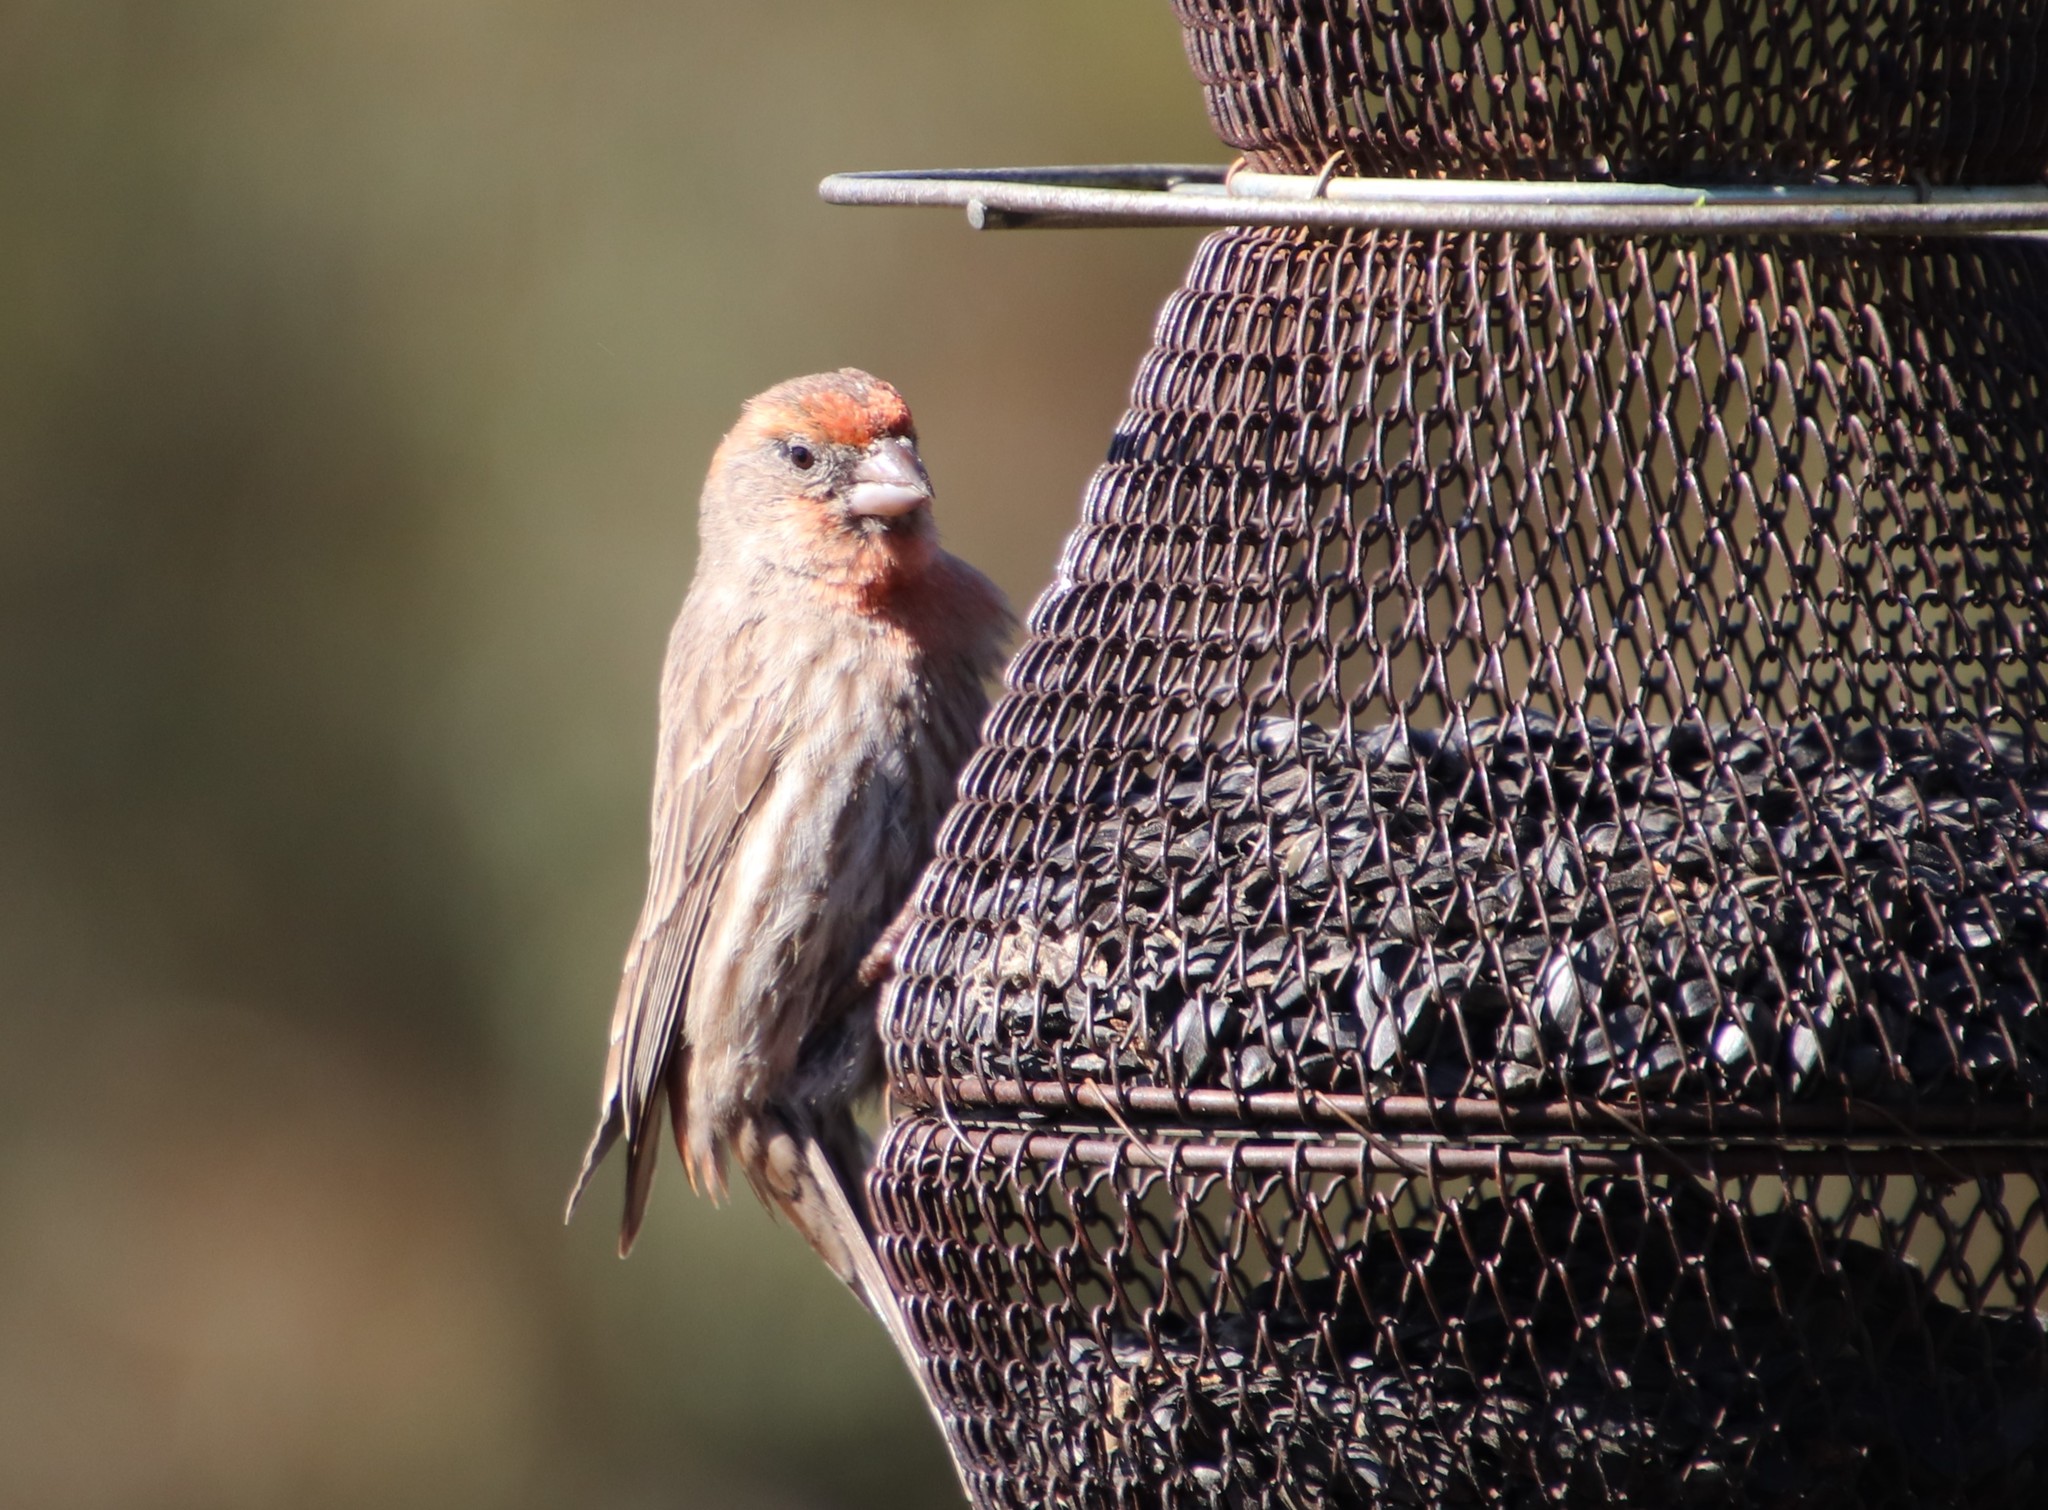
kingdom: Animalia
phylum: Chordata
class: Aves
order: Passeriformes
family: Fringillidae
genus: Haemorhous
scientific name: Haemorhous mexicanus
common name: House finch
